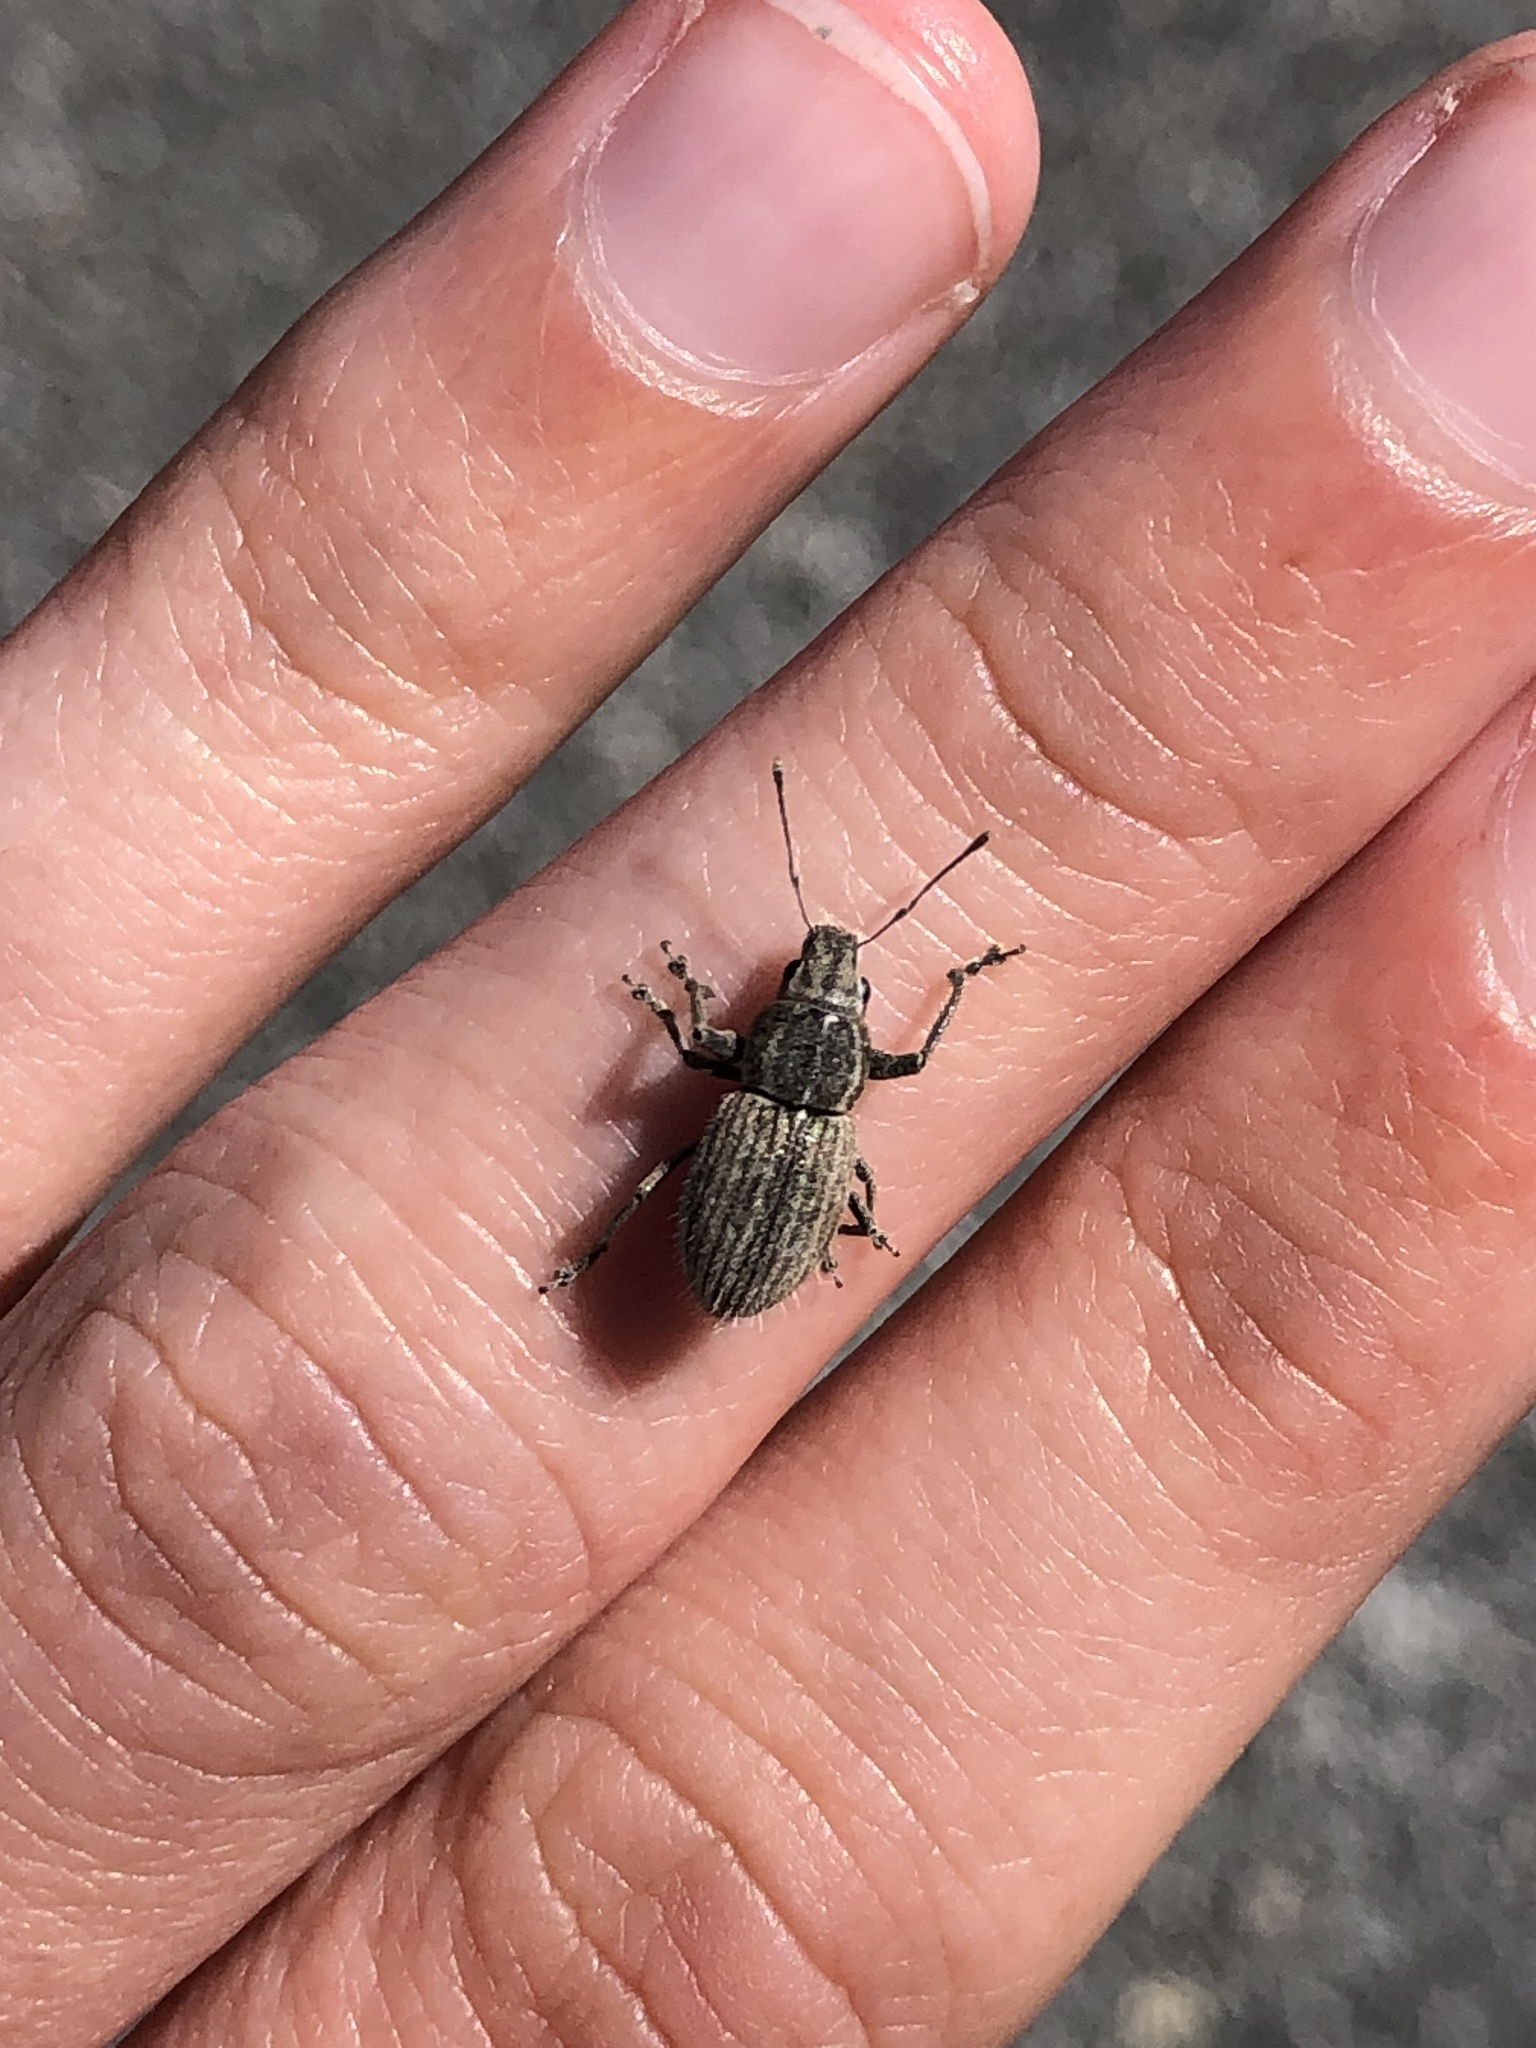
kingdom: Animalia
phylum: Arthropoda
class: Insecta
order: Coleoptera
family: Curculionidae
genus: Naupactus
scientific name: Naupactus leucoloma
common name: Whitefringed beetle
